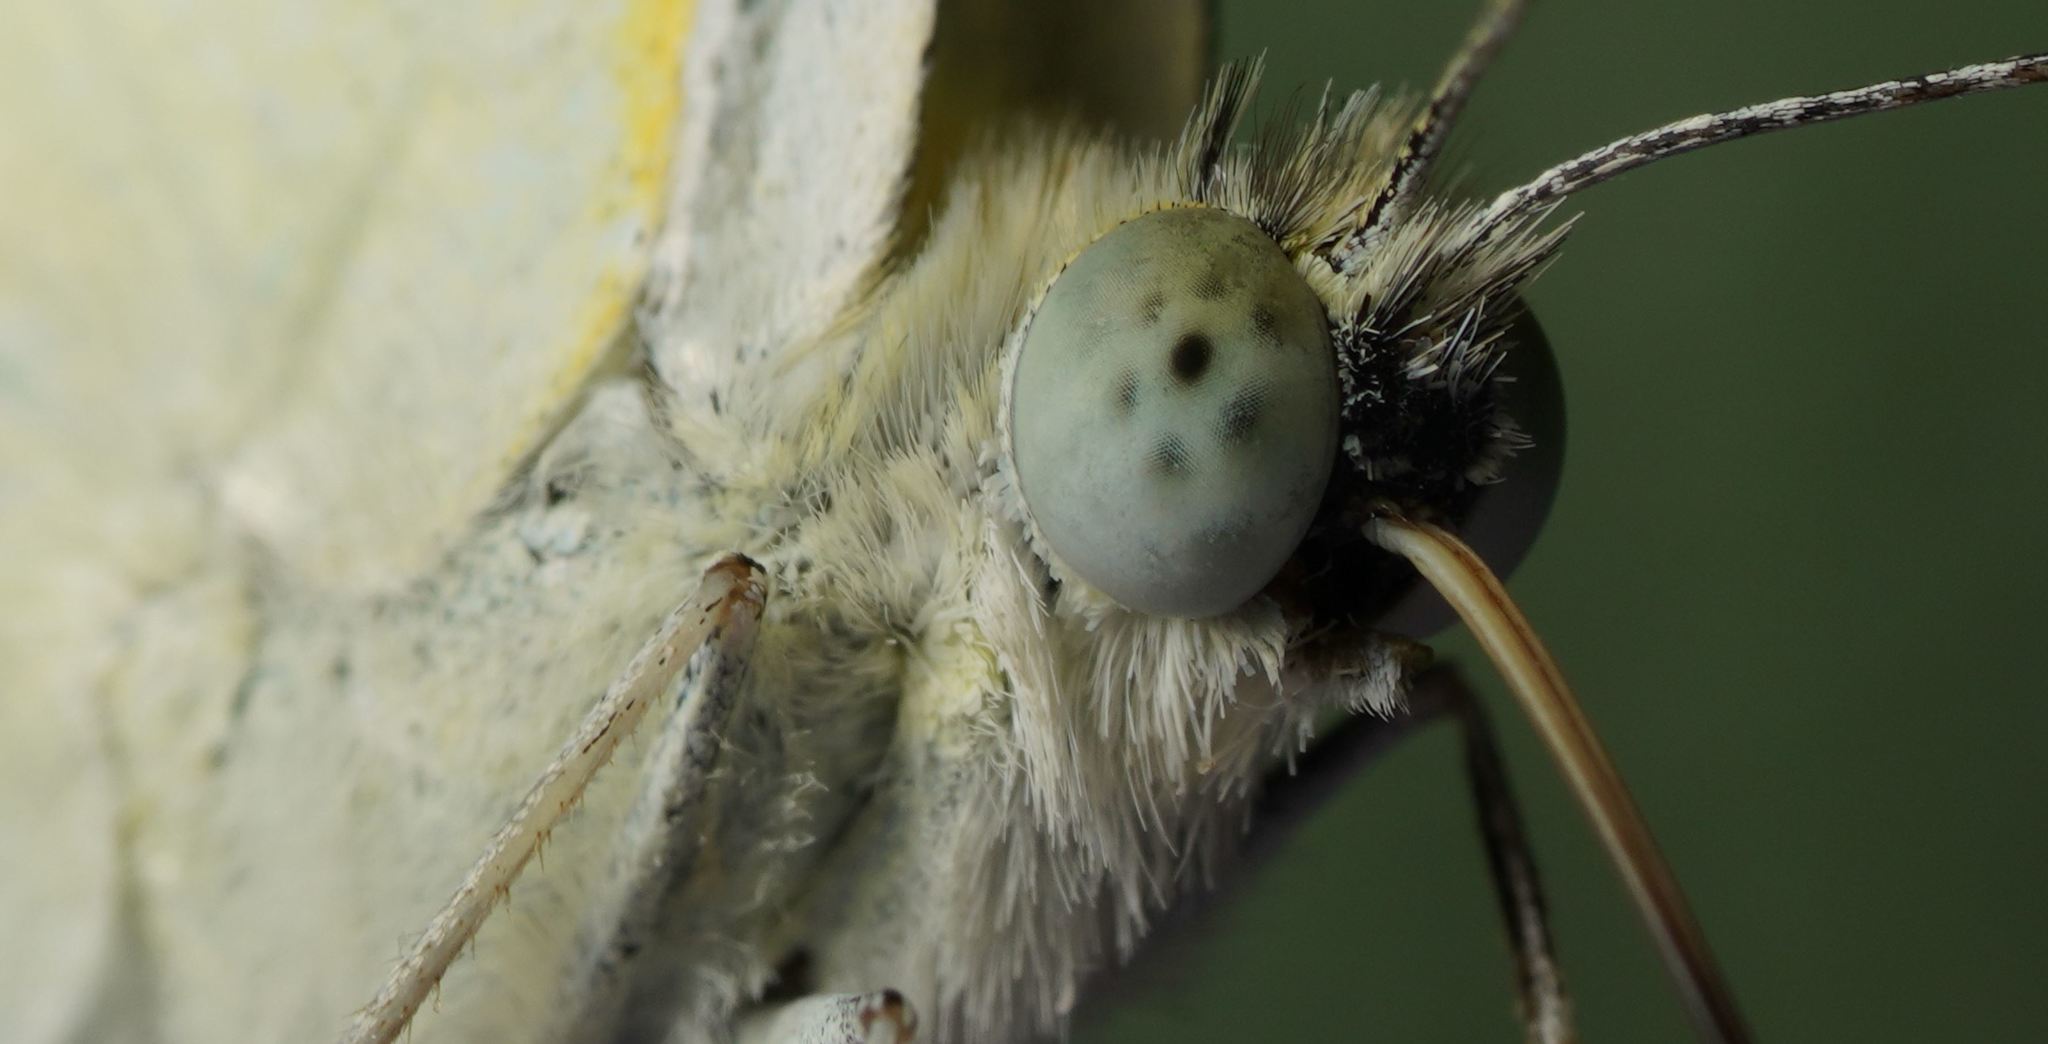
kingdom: Animalia
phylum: Arthropoda
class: Insecta
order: Lepidoptera
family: Pieridae
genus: Pieris
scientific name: Pieris rapae
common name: Small white
